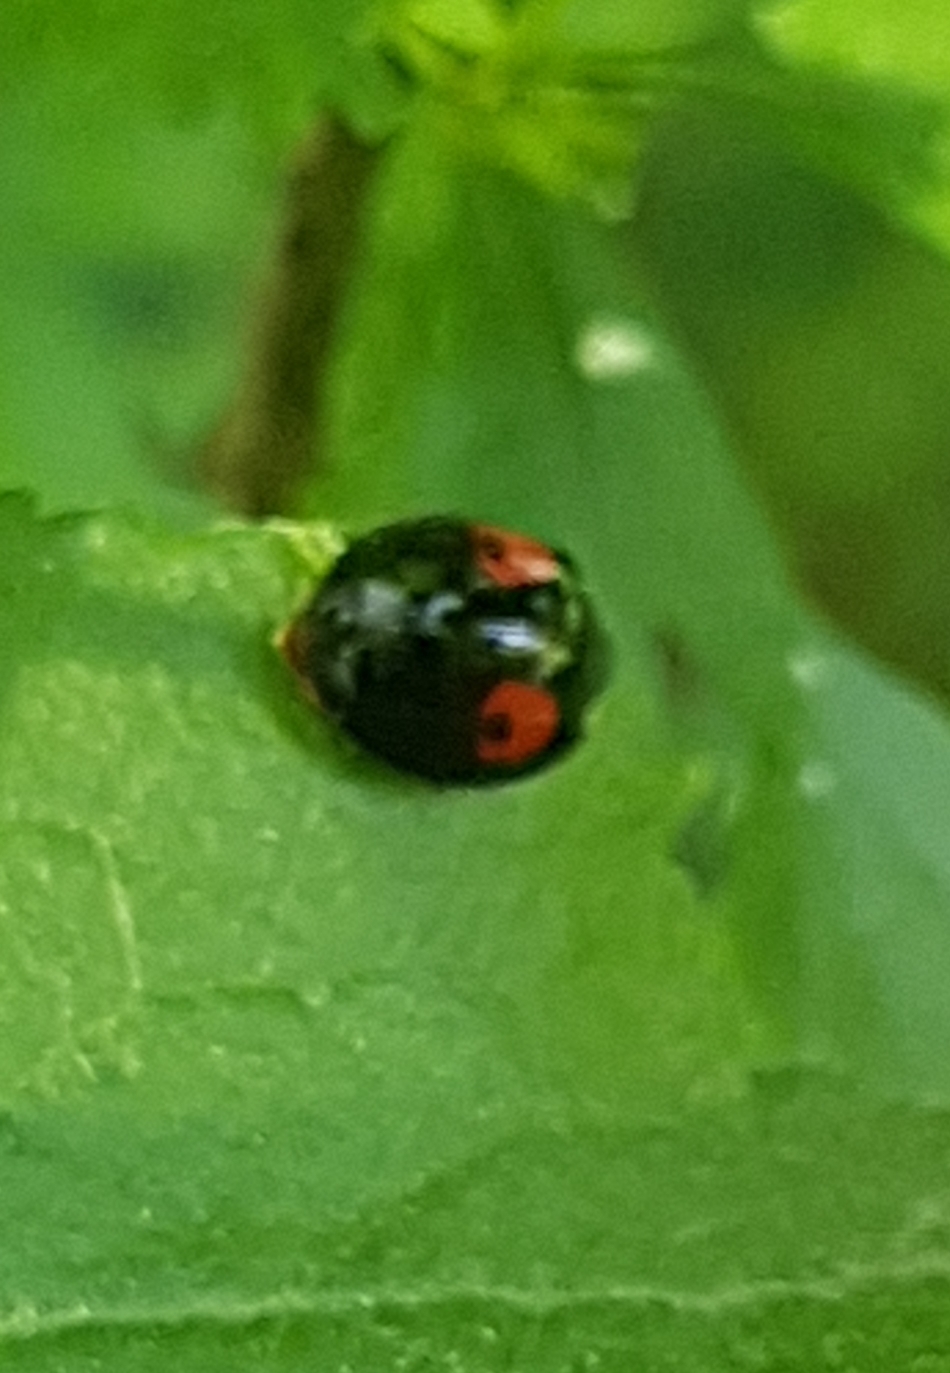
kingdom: Animalia
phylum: Arthropoda
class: Insecta
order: Coleoptera
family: Coccinellidae
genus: Harmonia
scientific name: Harmonia axyridis
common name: Harlequin ladybird
